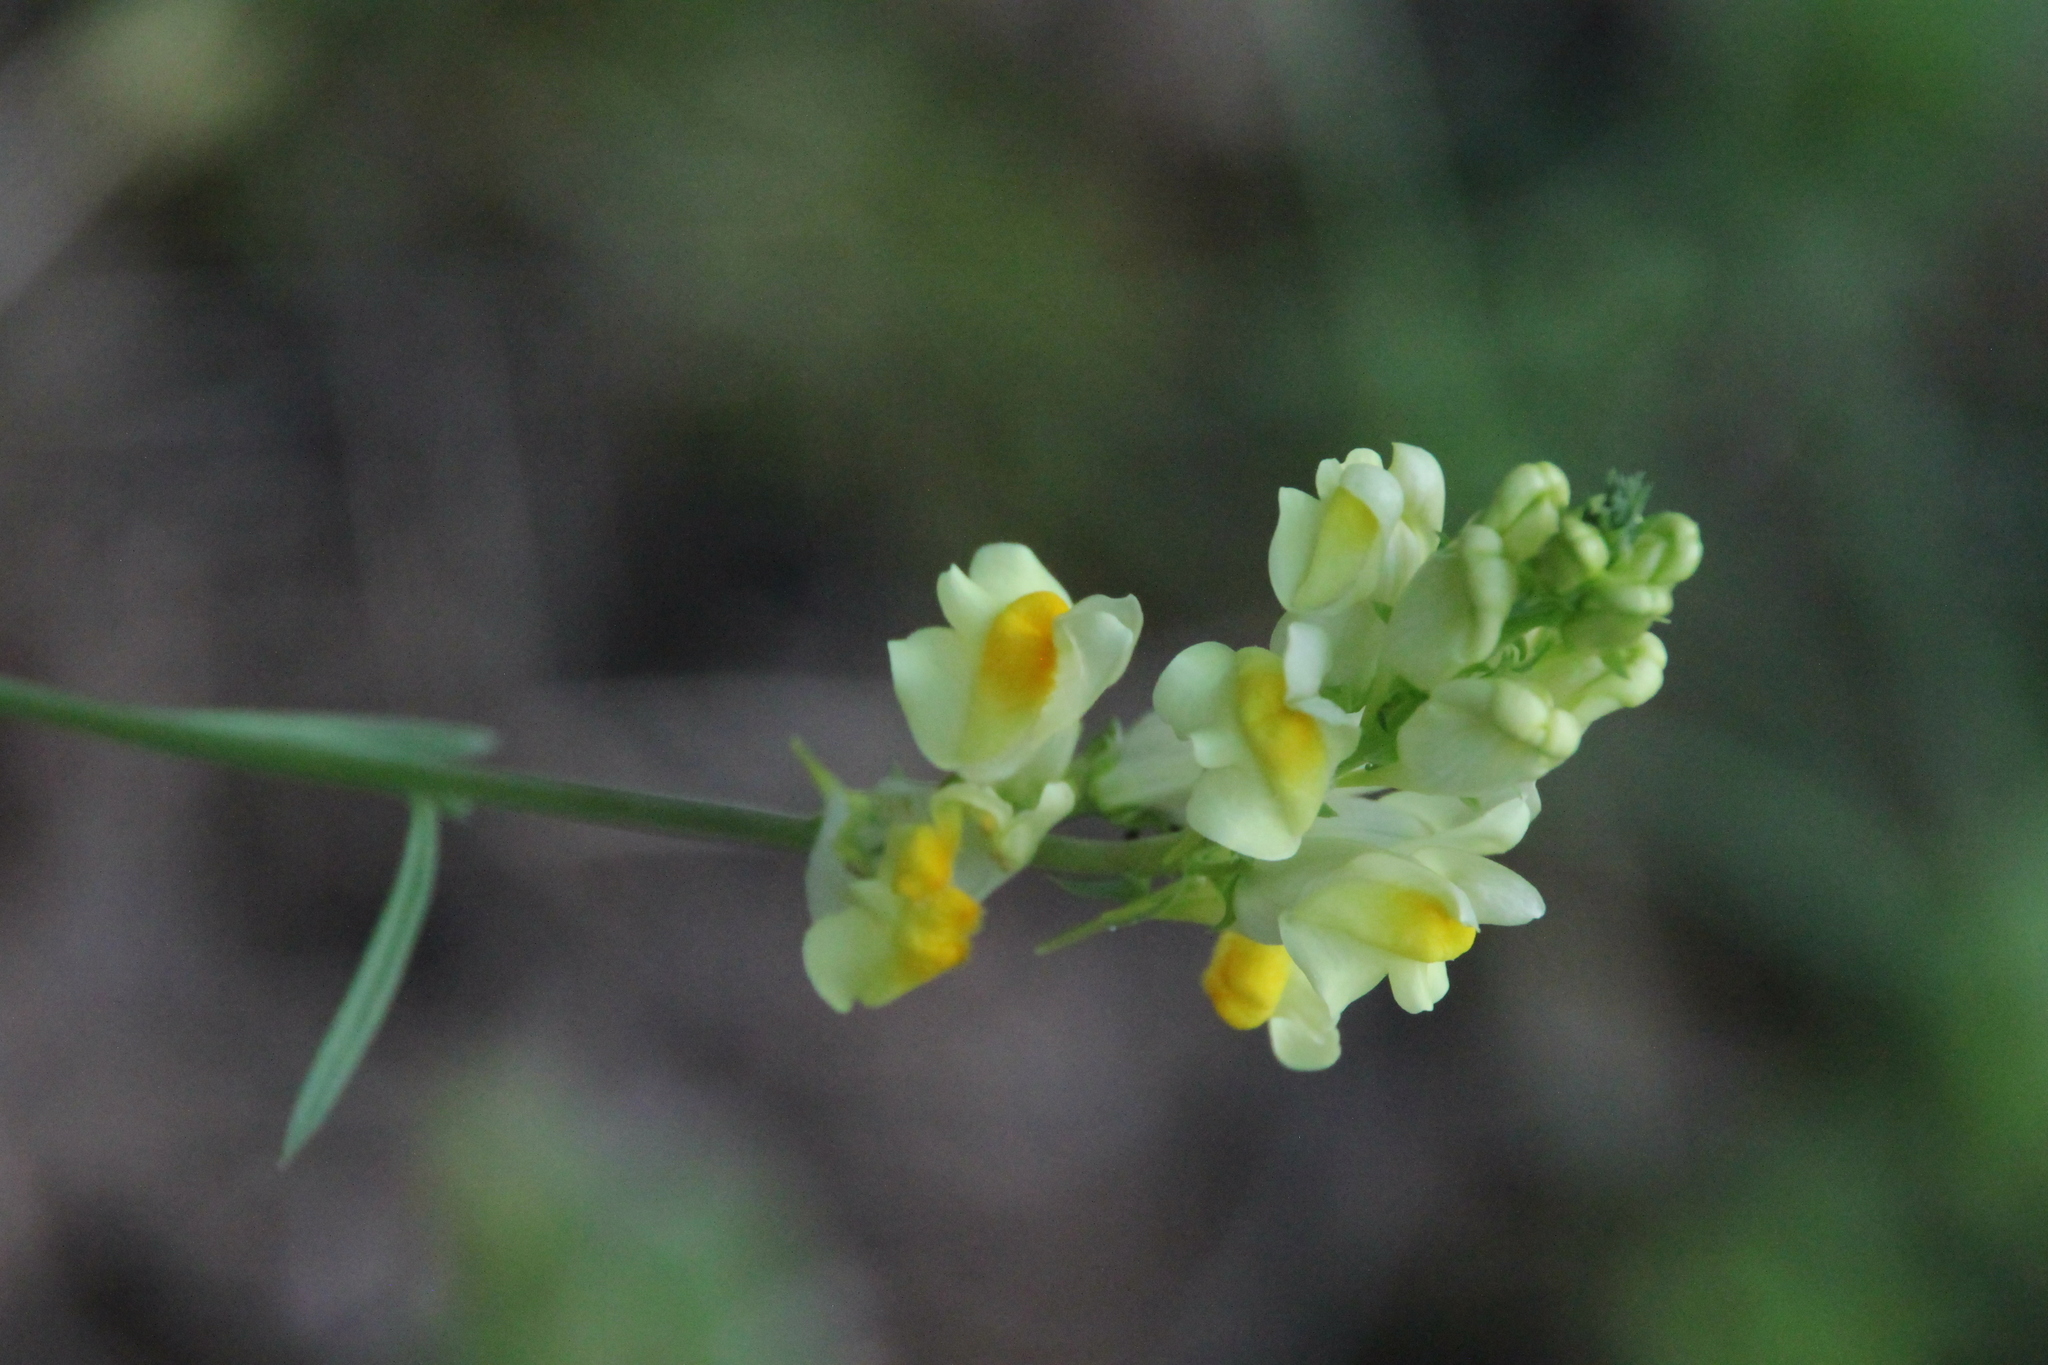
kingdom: Plantae
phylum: Tracheophyta
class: Magnoliopsida
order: Lamiales
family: Plantaginaceae
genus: Linaria
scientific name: Linaria vulgaris
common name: Butter and eggs
